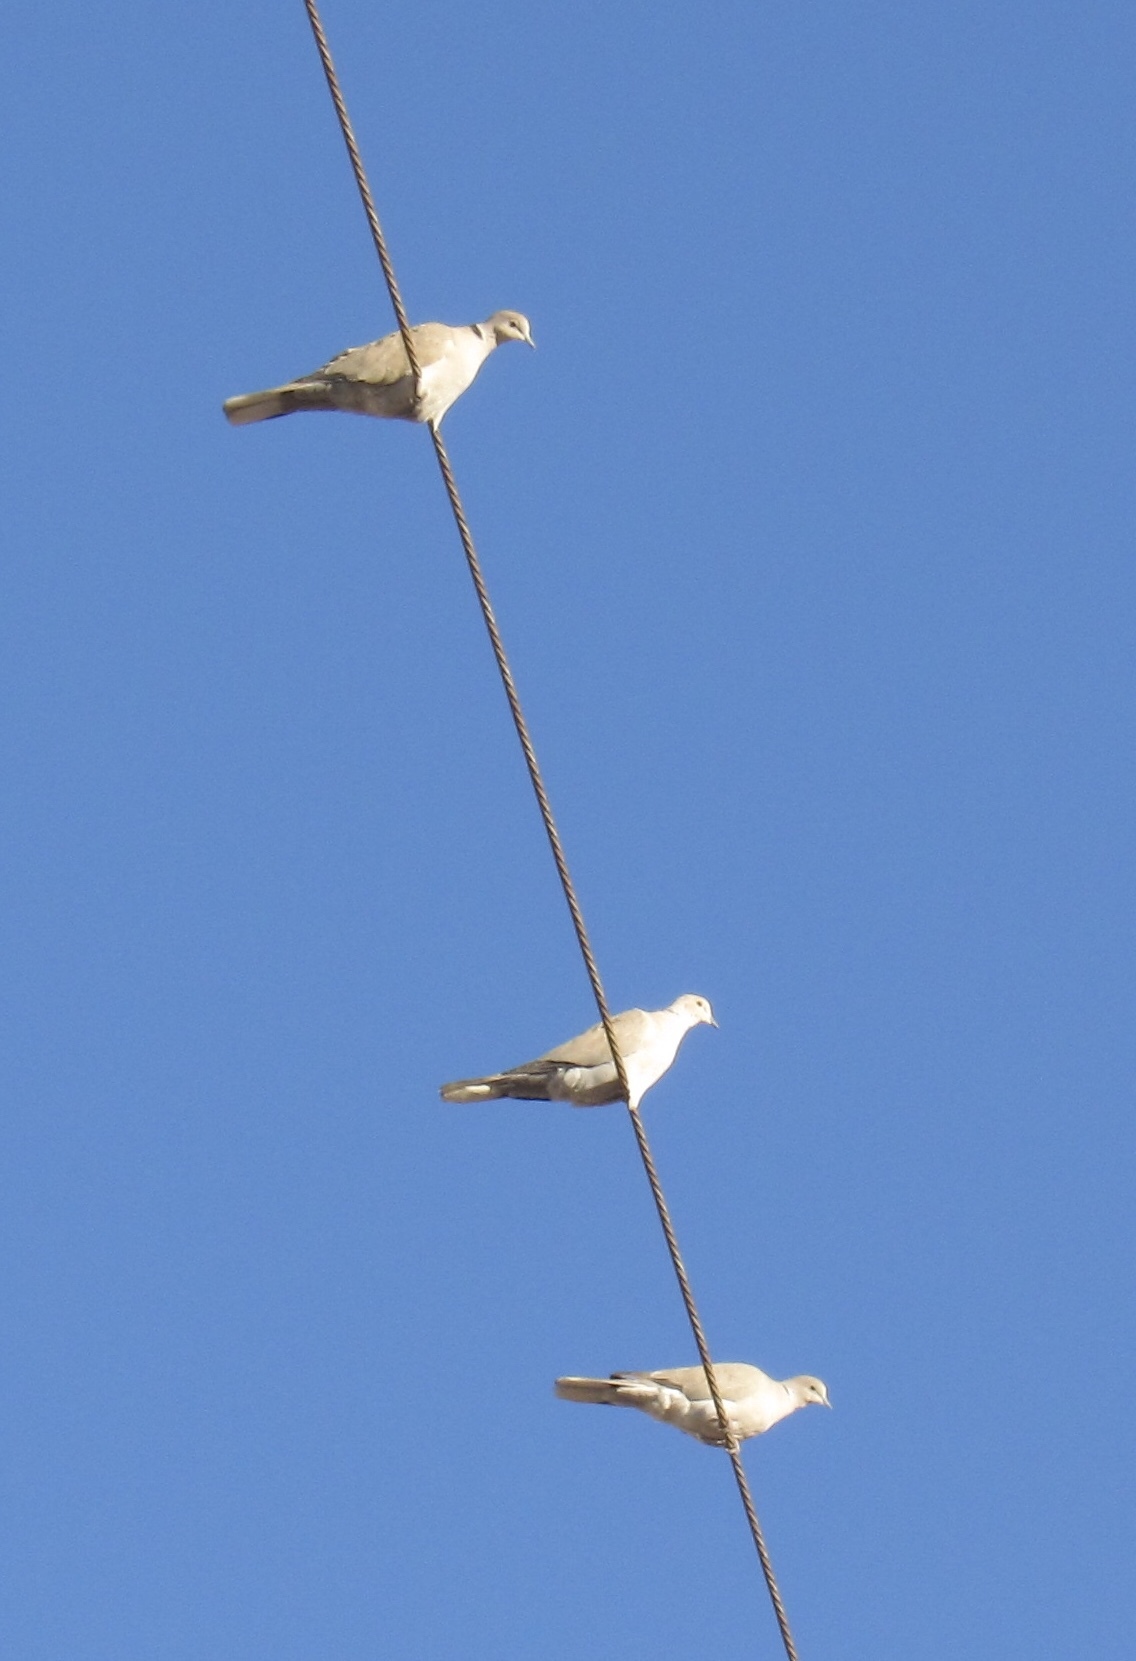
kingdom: Animalia
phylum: Chordata
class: Aves
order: Columbiformes
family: Columbidae
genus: Streptopelia
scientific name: Streptopelia decaocto
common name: Eurasian collared dove
